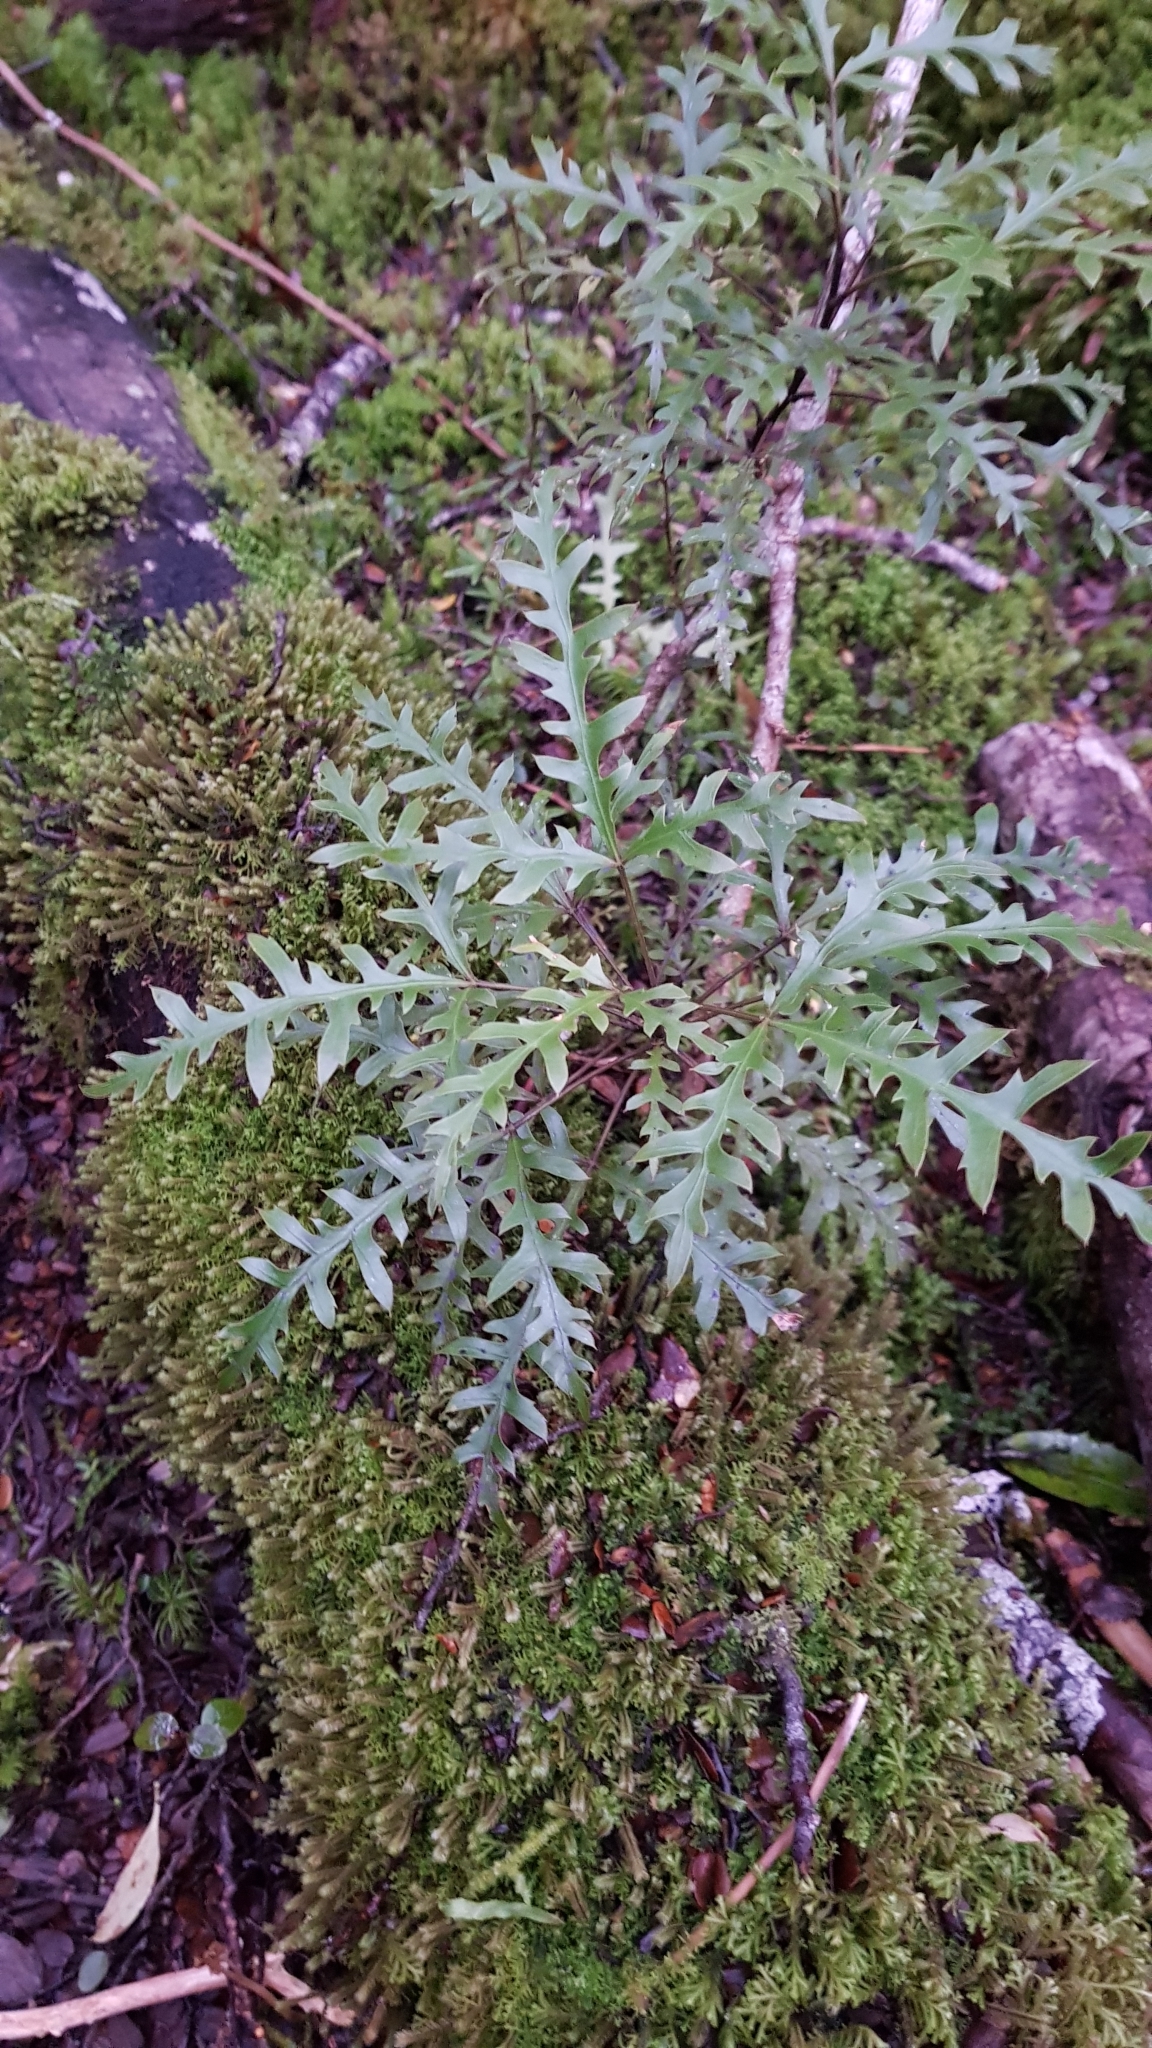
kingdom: Plantae
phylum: Tracheophyta
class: Magnoliopsida
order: Apiales
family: Araliaceae
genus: Raukaua
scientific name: Raukaua simplex
